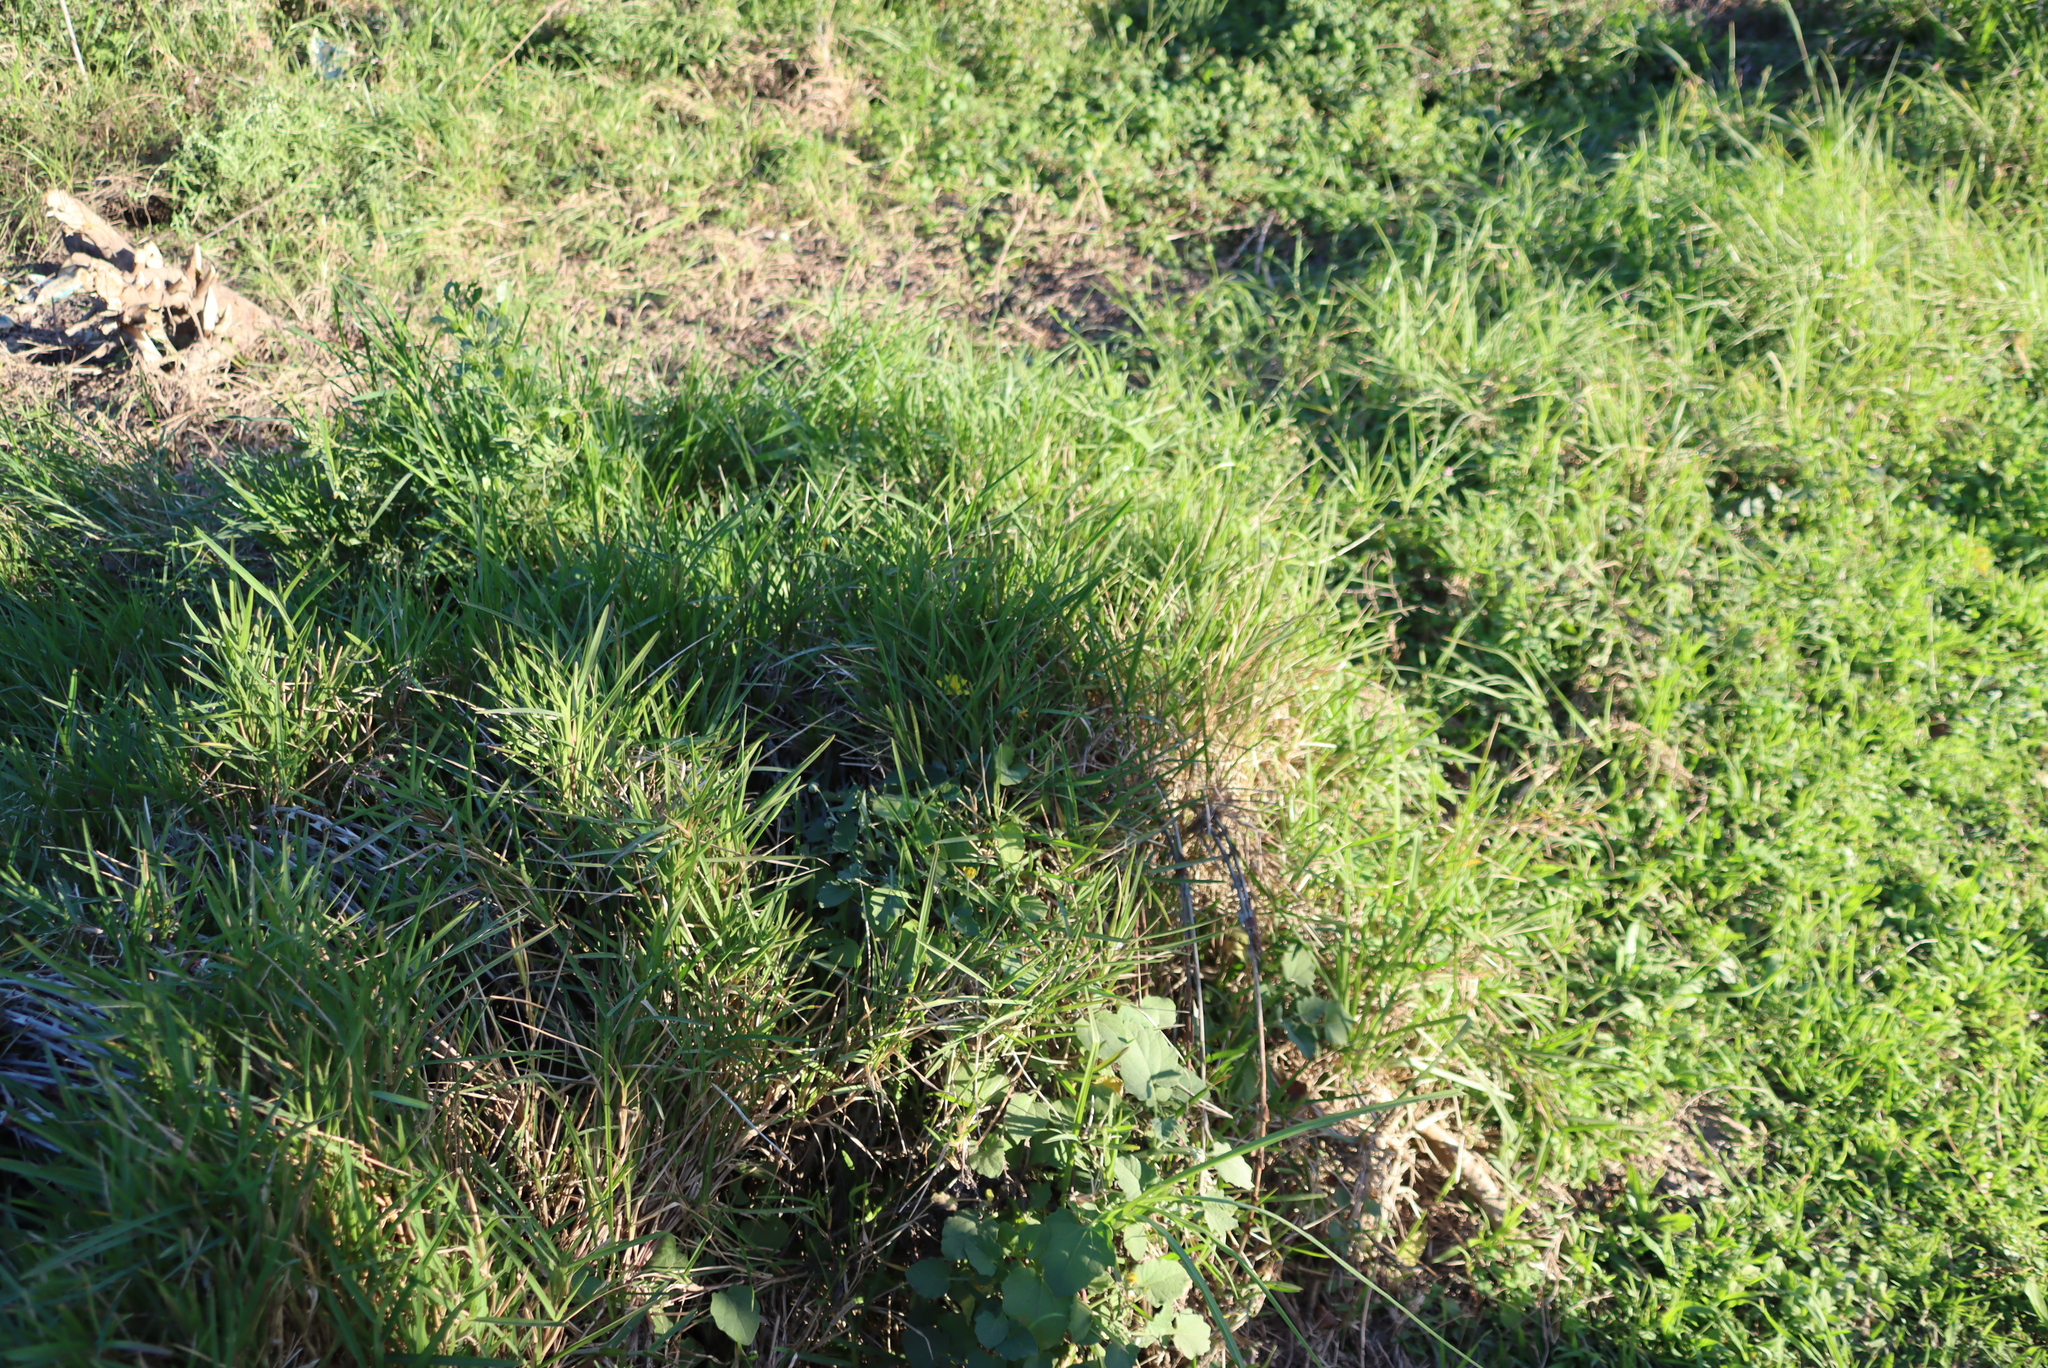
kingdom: Plantae
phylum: Tracheophyta
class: Liliopsida
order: Poales
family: Poaceae
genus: Cenchrus
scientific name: Cenchrus clandestinus
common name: Kikuyugrass
